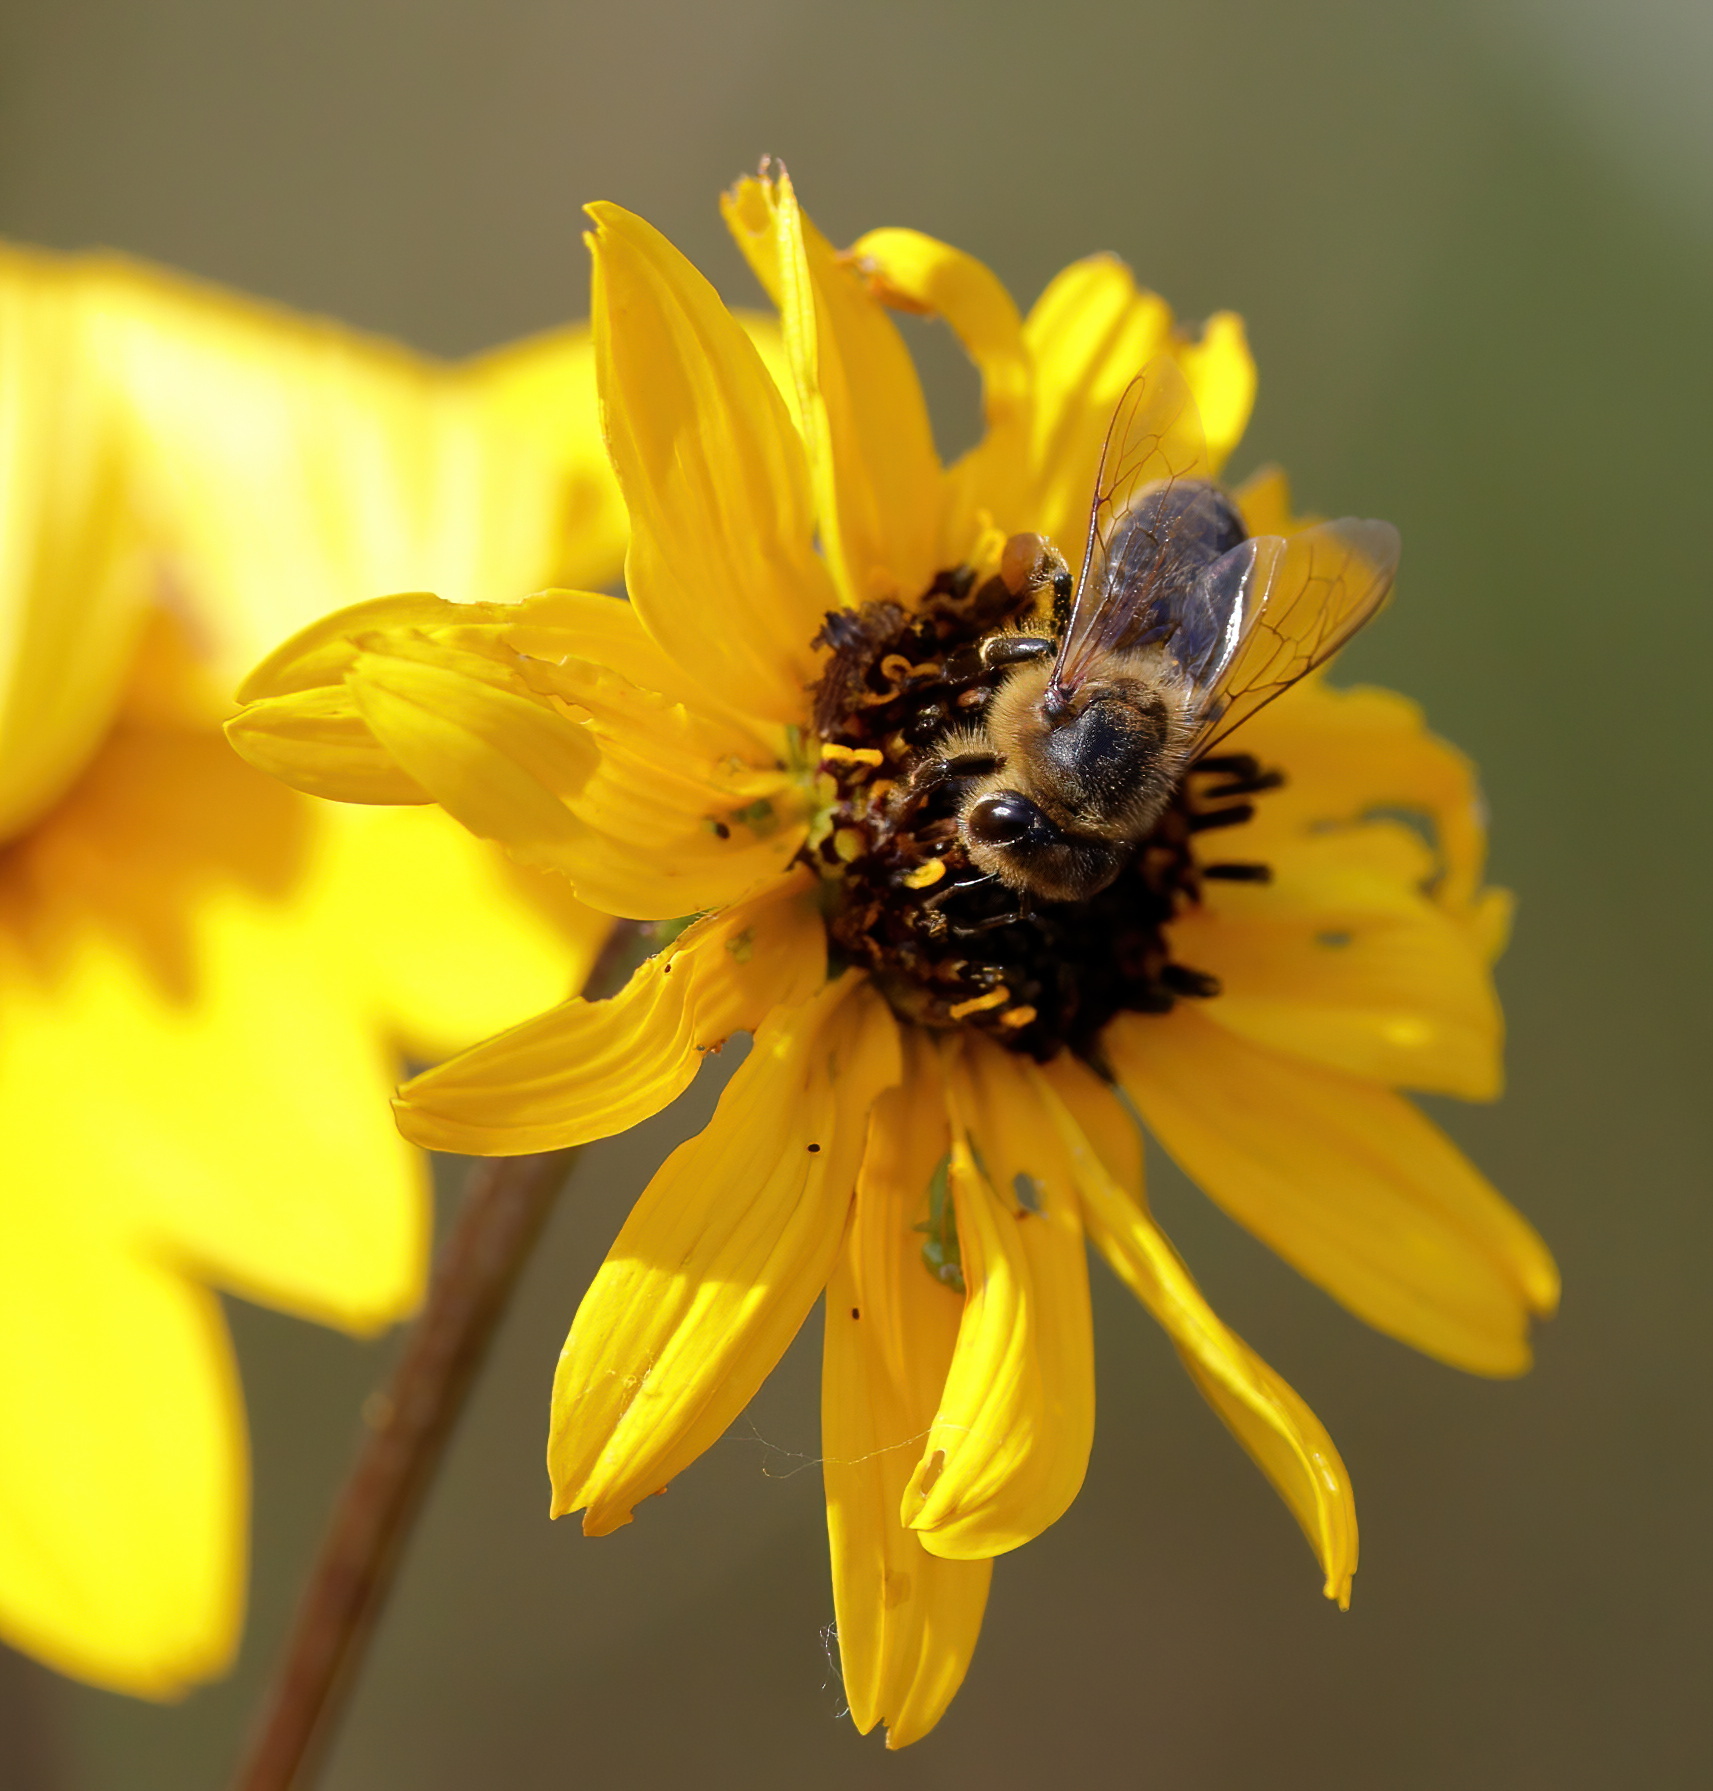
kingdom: Animalia
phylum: Arthropoda
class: Insecta
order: Hymenoptera
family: Apidae
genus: Apis
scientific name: Apis mellifera
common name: Honey bee
